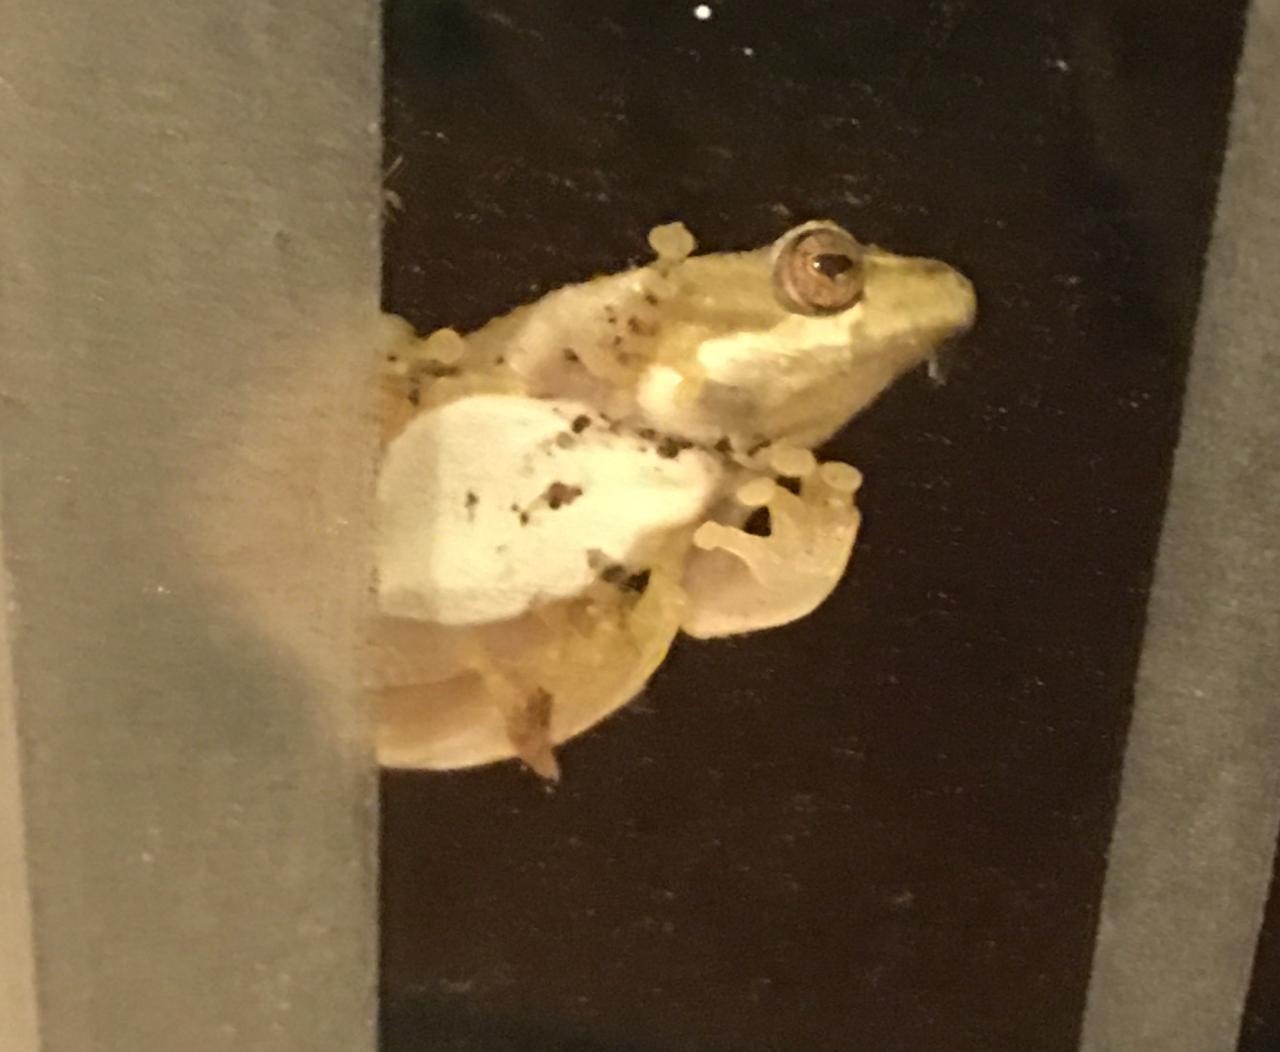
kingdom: Animalia
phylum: Chordata
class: Amphibia
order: Anura
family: Hyperoliidae
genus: Hyperolius
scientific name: Hyperolius marmoratus
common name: Painted reed frog
